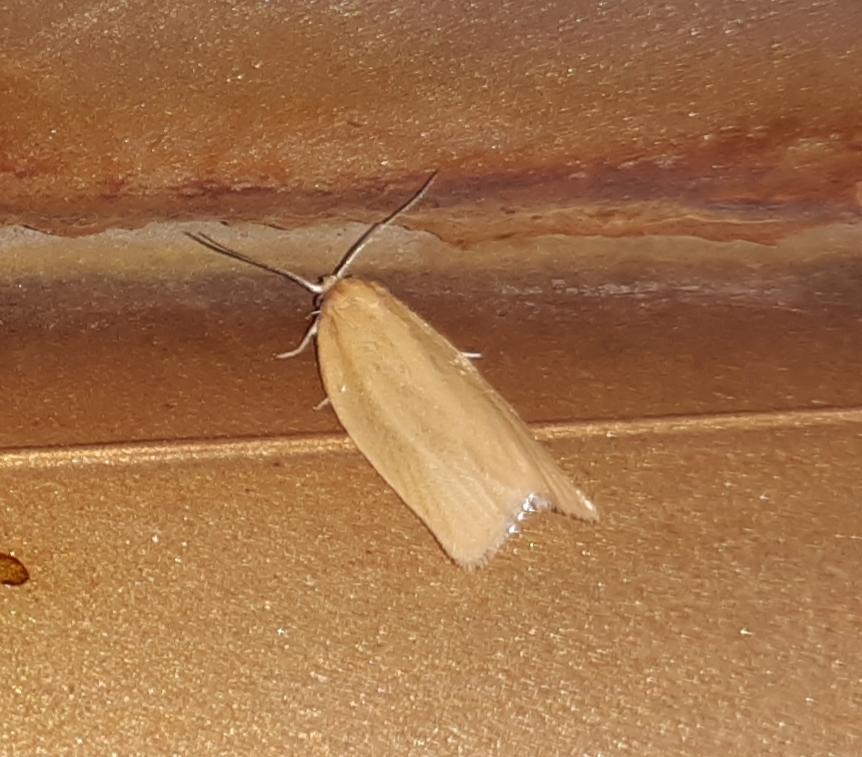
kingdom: Animalia
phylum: Arthropoda
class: Insecta
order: Lepidoptera
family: Tortricidae
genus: Clepsis
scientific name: Clepsis clemensiana
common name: Clemens' clepsis moth
